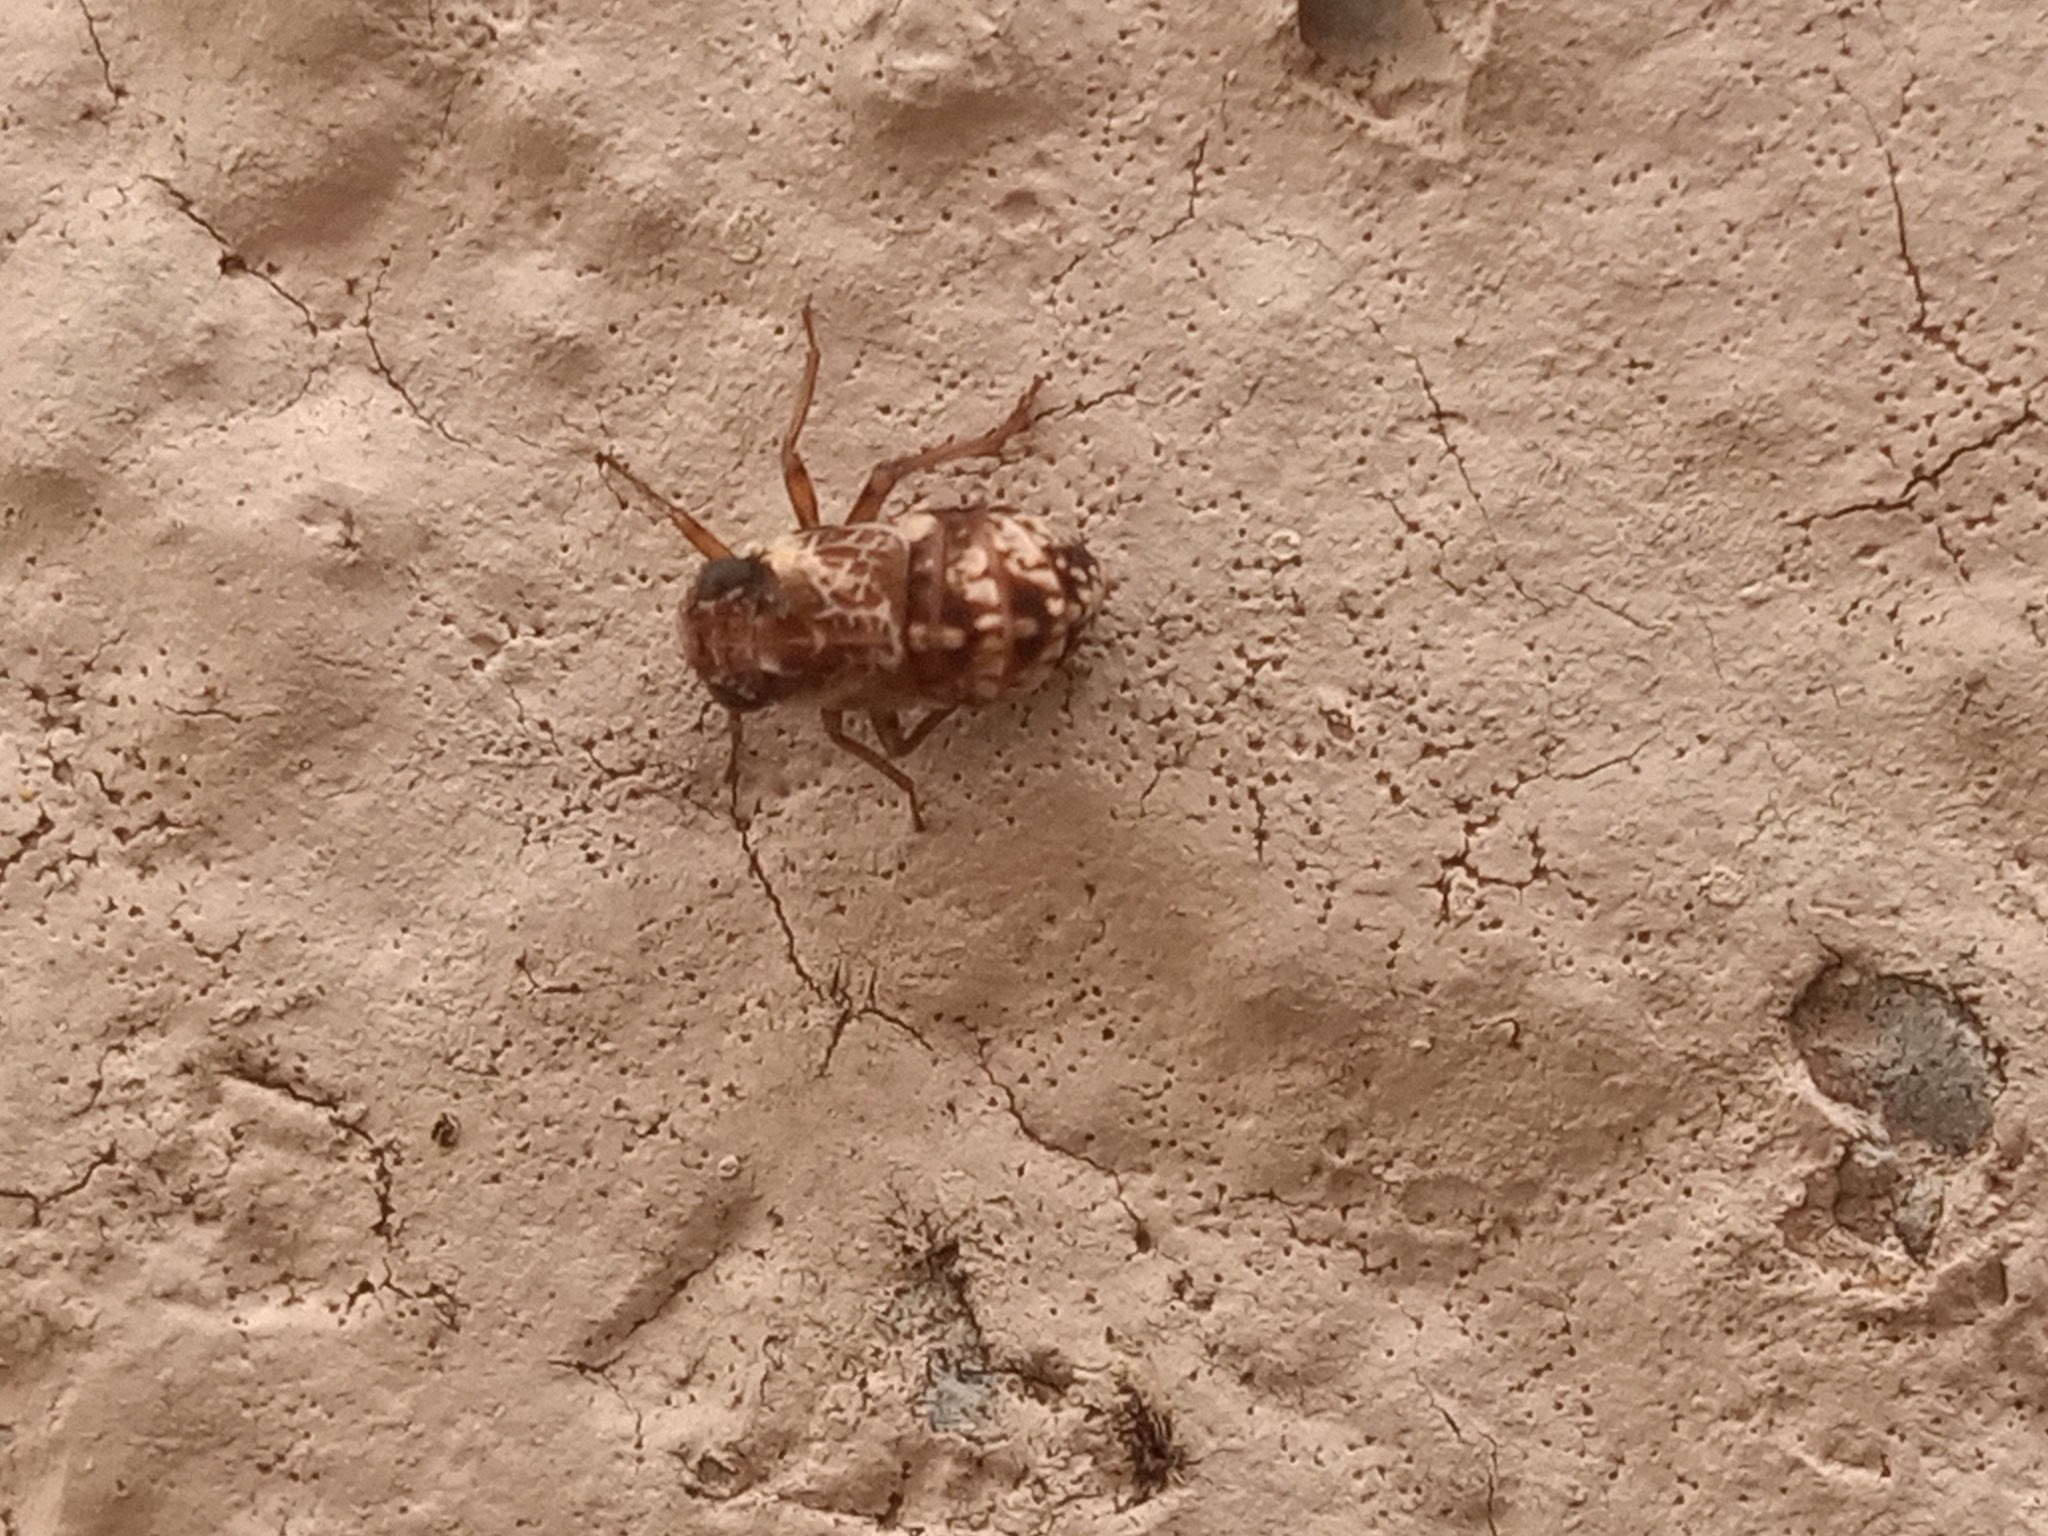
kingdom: Animalia
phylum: Arthropoda
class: Insecta
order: Hemiptera
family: Caliscelidae
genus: Bruchomorpha
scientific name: Bruchomorpha decorata
